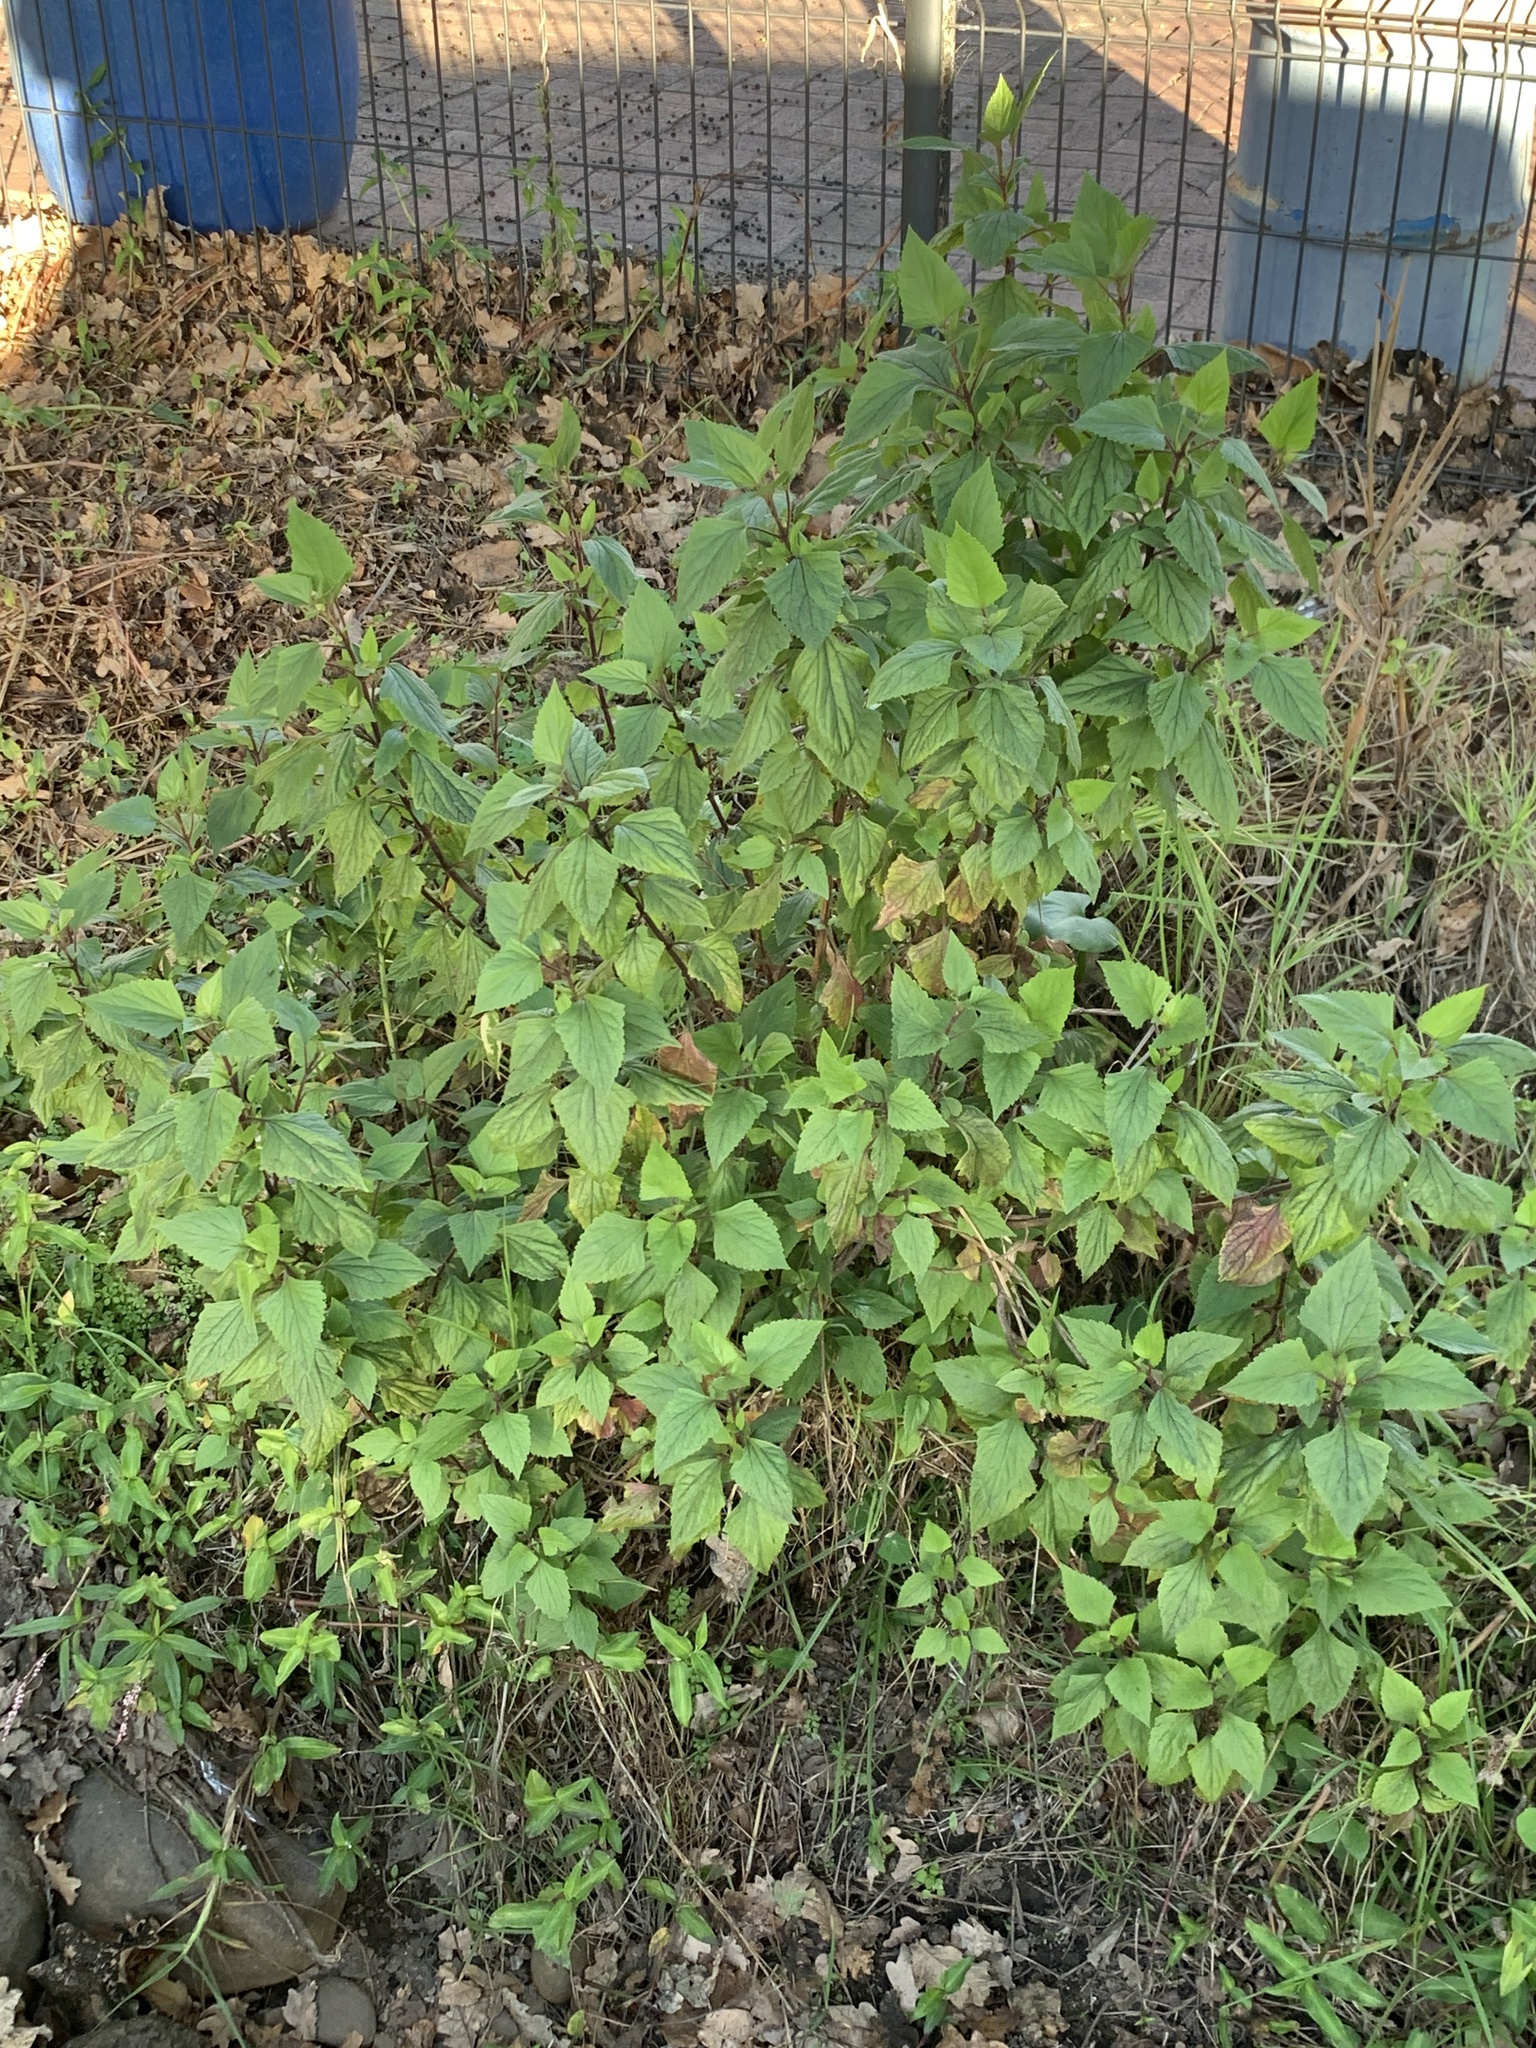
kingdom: Plantae
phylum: Tracheophyta
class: Magnoliopsida
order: Asterales
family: Asteraceae
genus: Ageratina
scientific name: Ageratina adenophora
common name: Sticky snakeroot
